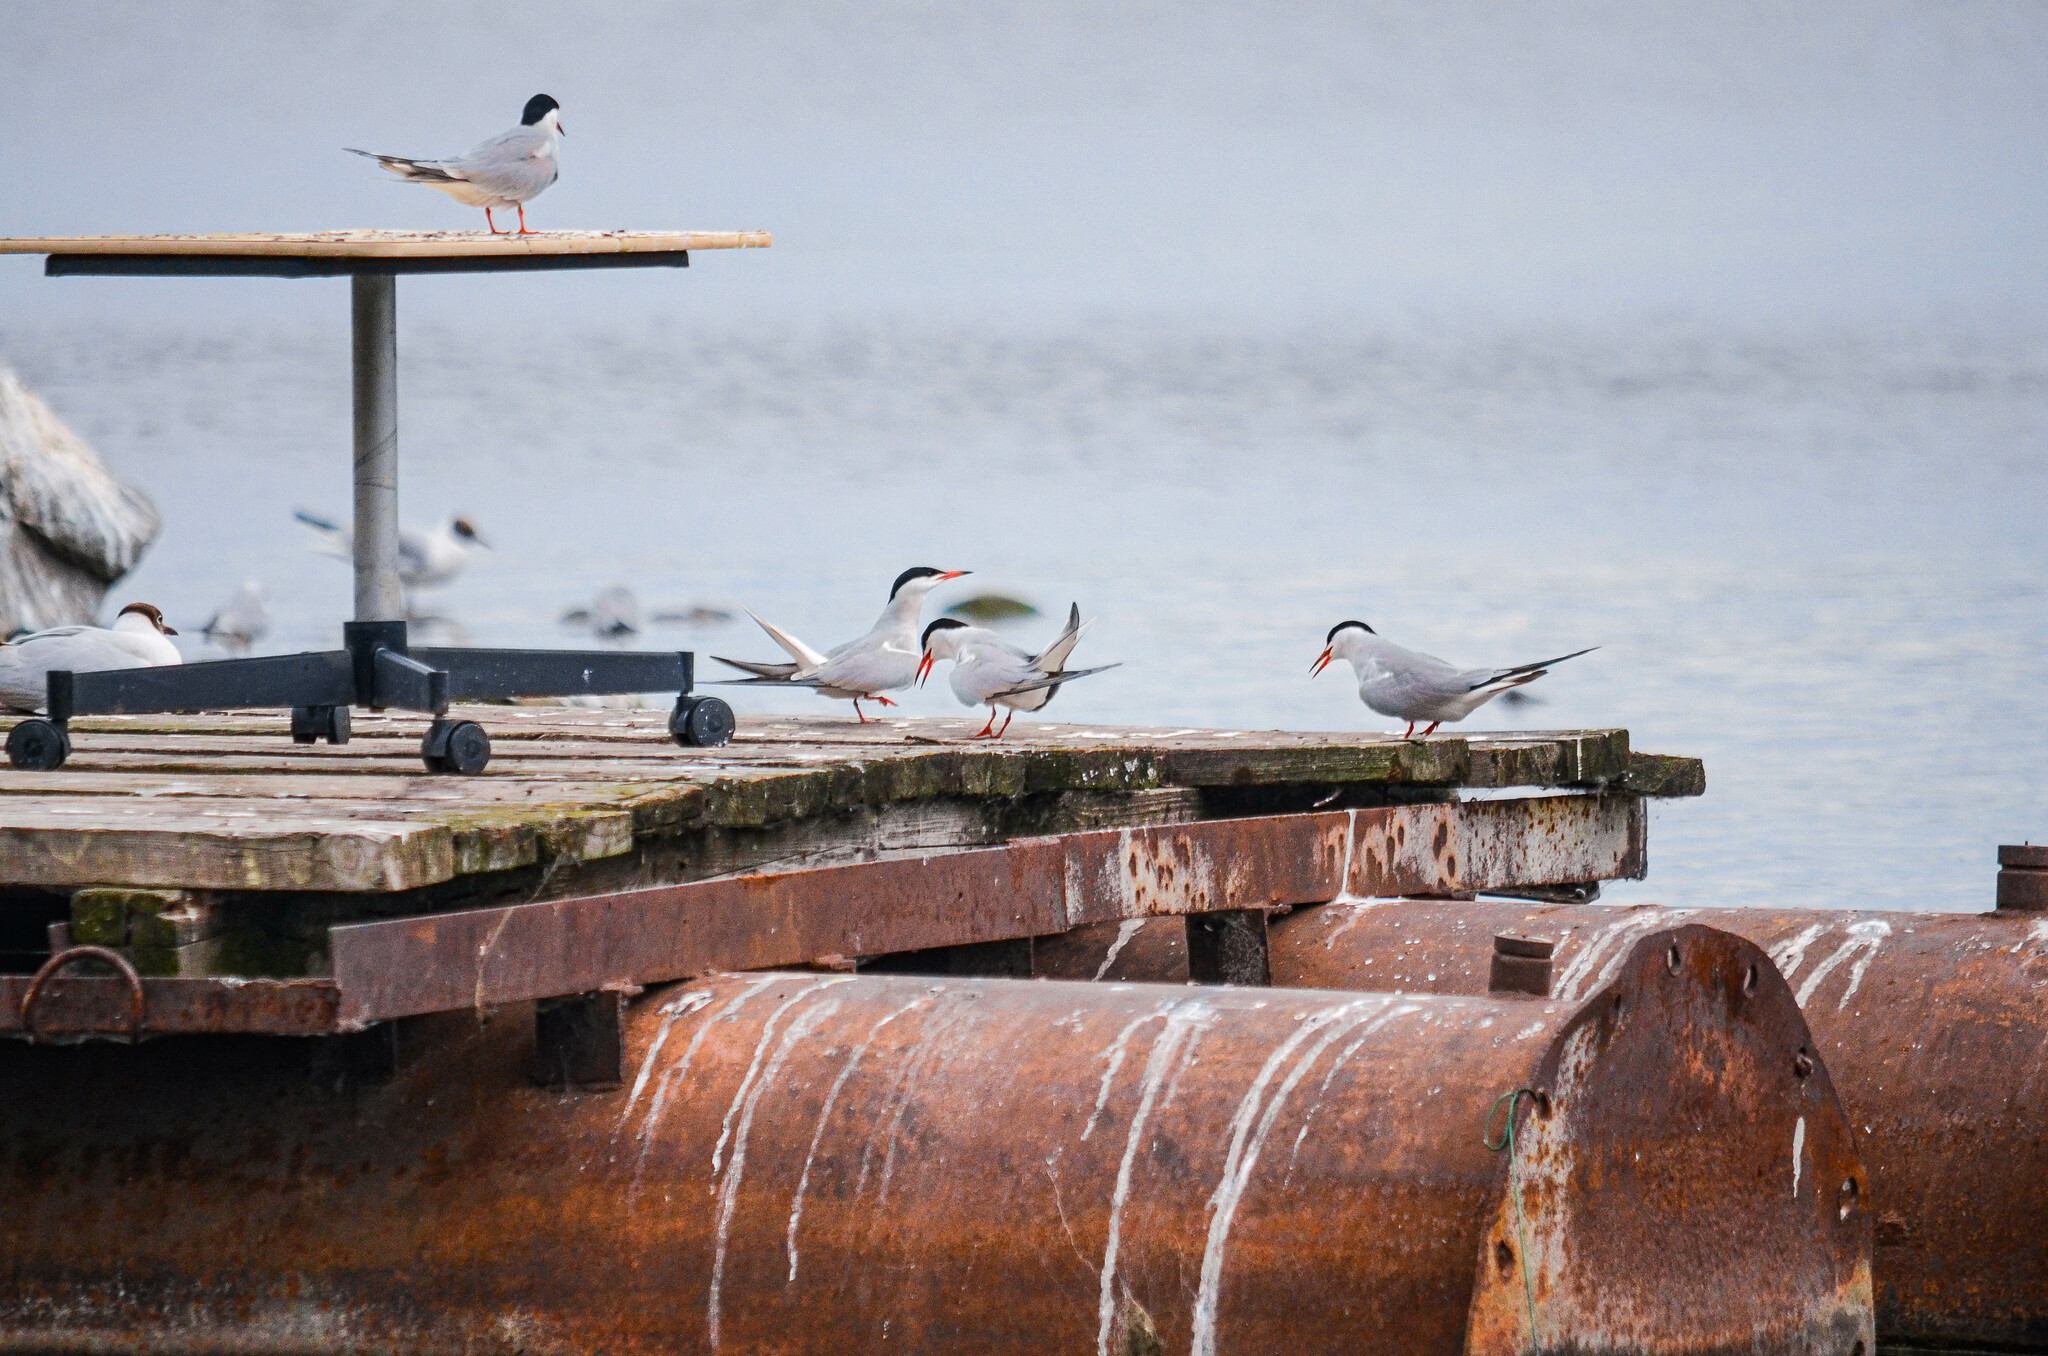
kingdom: Animalia
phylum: Chordata
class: Aves
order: Charadriiformes
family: Laridae
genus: Sterna
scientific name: Sterna hirundo
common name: Common tern
